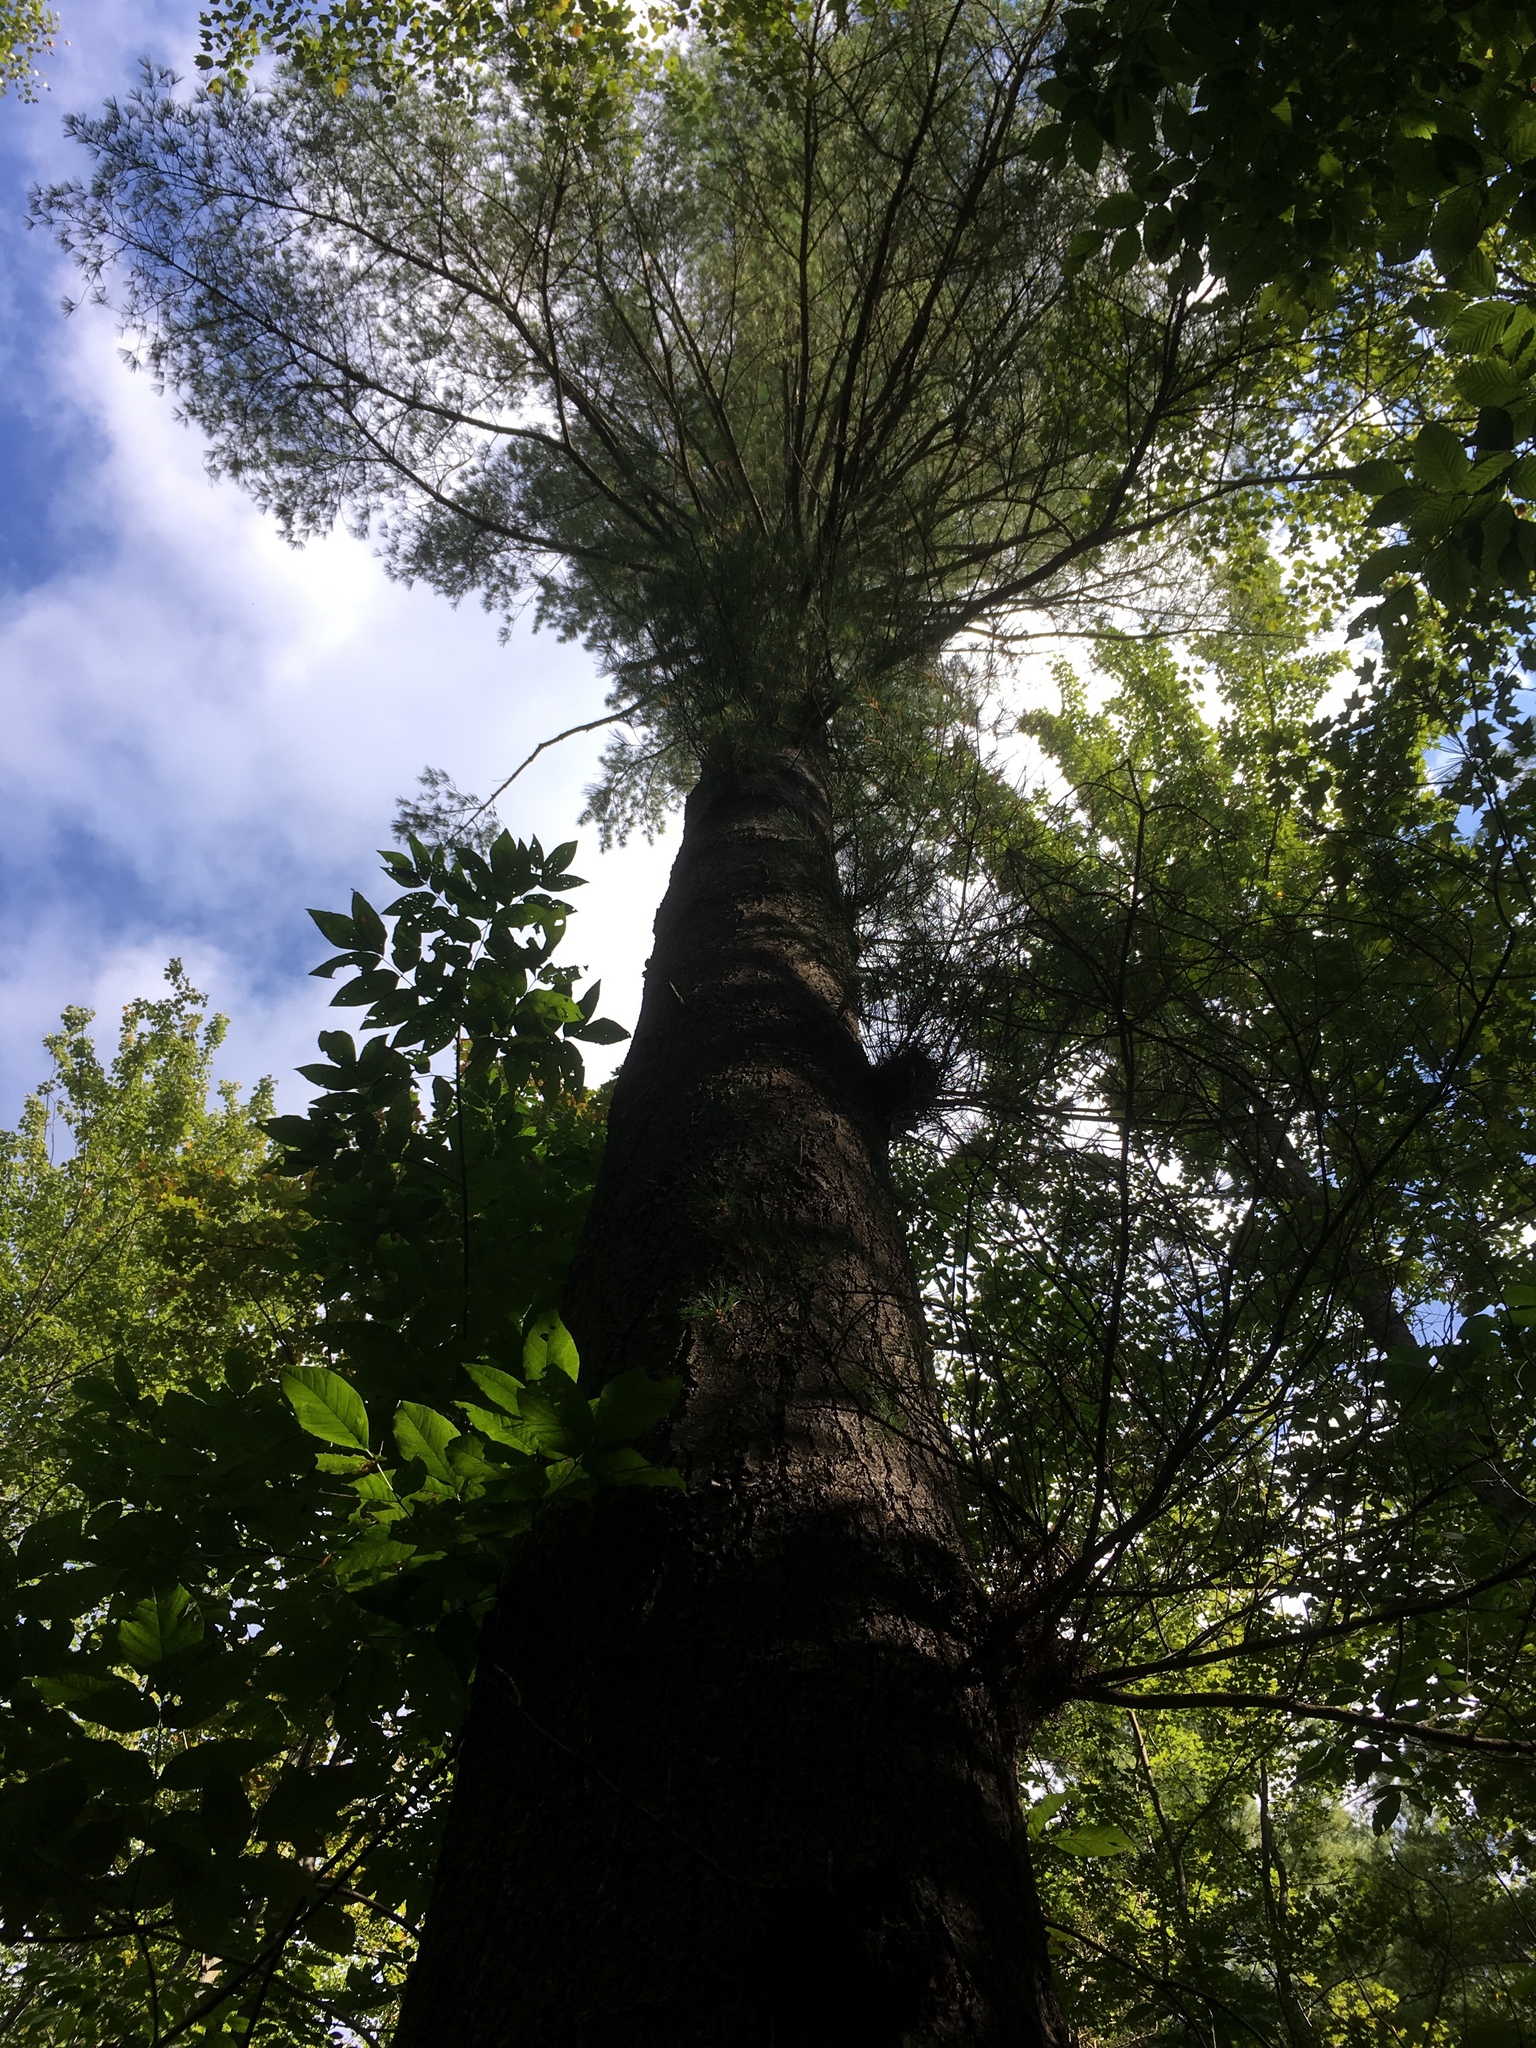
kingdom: Plantae
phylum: Tracheophyta
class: Pinopsida
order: Pinales
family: Pinaceae
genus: Pinus
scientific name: Pinus strobus
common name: Weymouth pine
